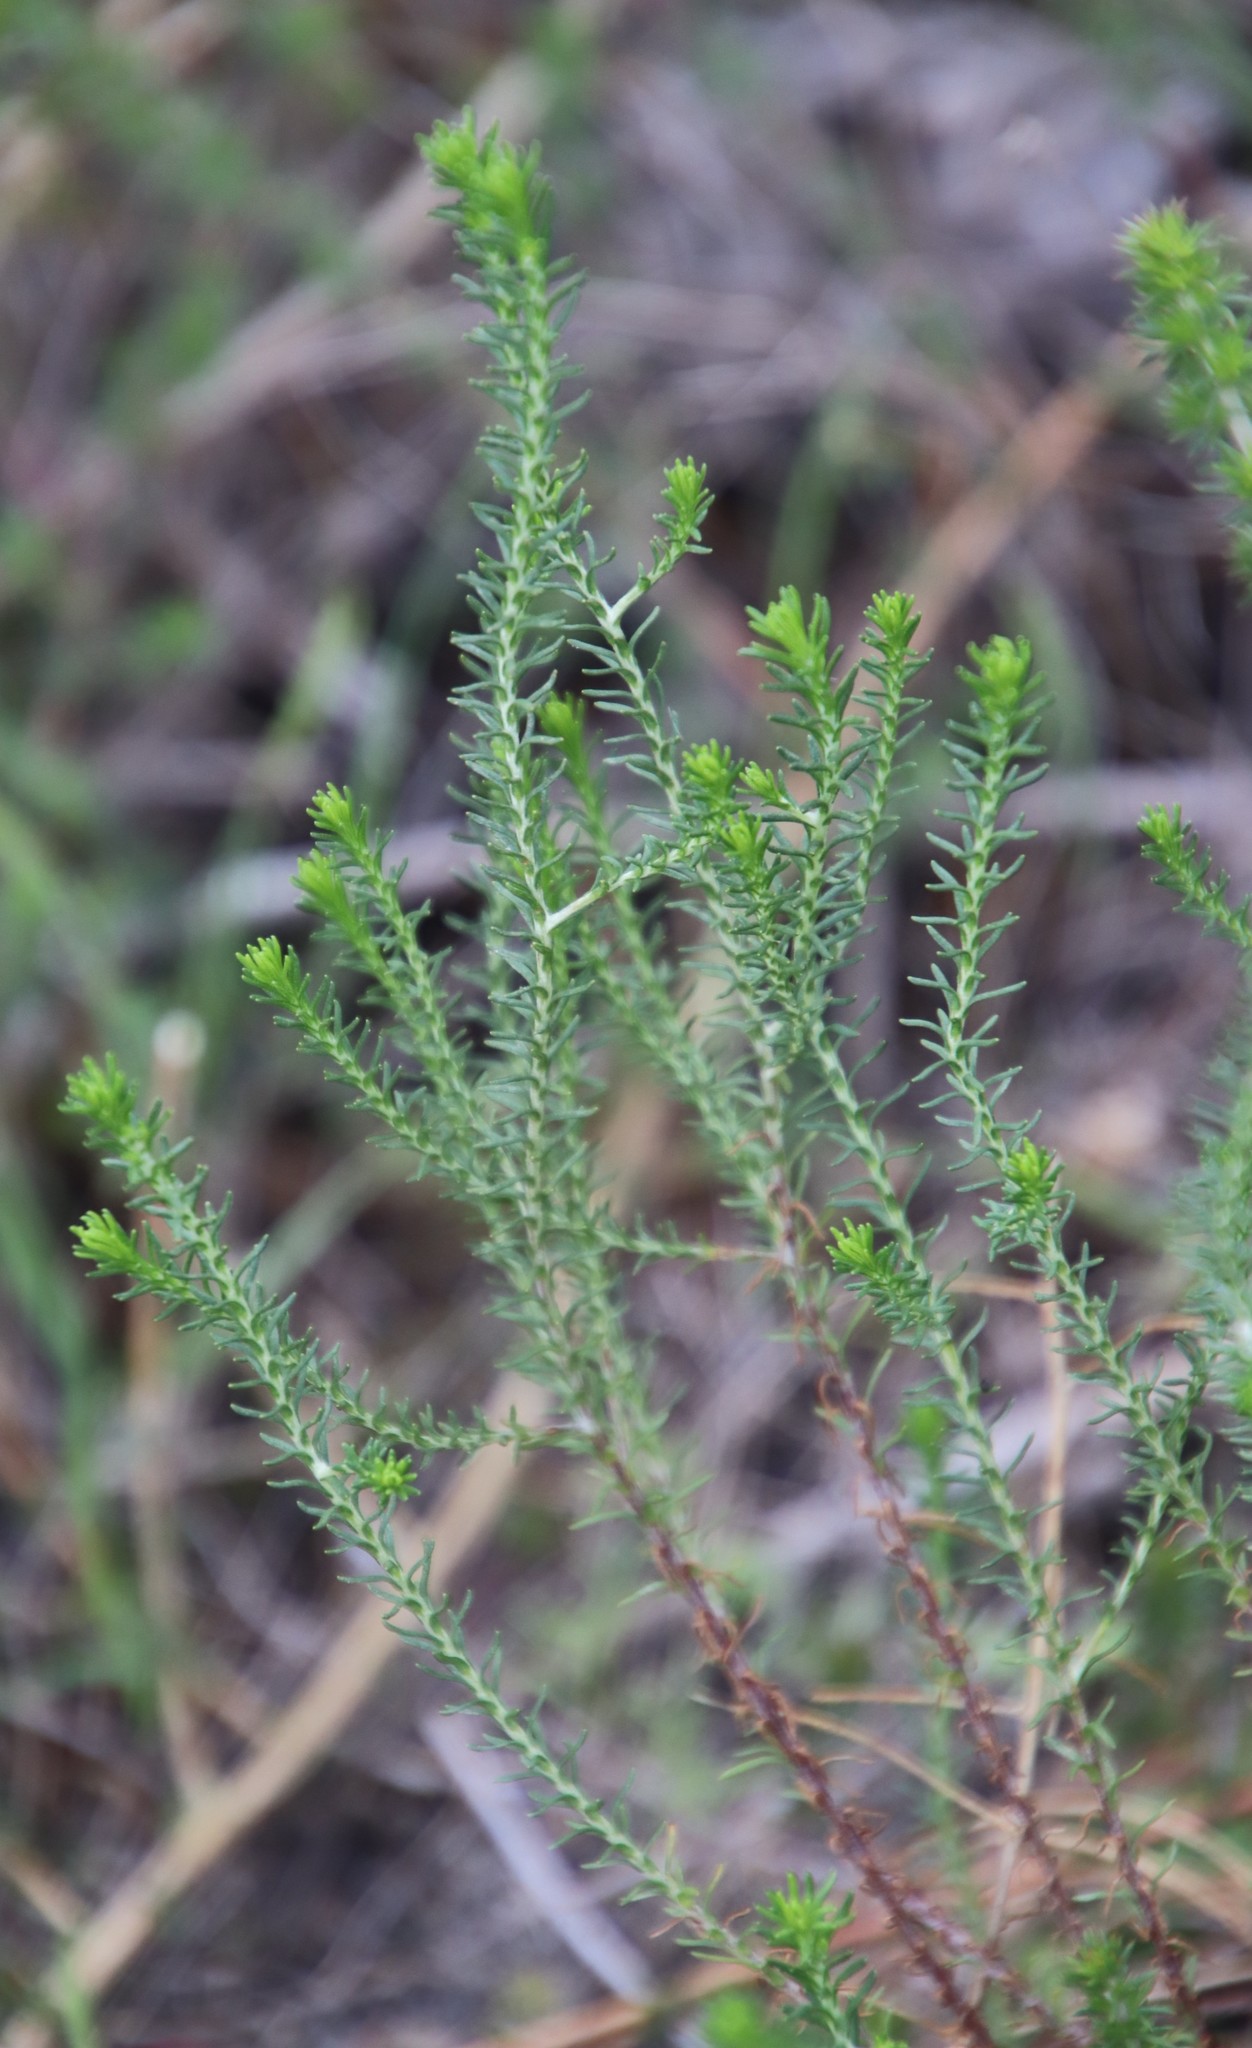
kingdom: Plantae
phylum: Tracheophyta
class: Magnoliopsida
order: Asterales
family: Asteraceae
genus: Chrysocoma
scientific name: Chrysocoma cernua
